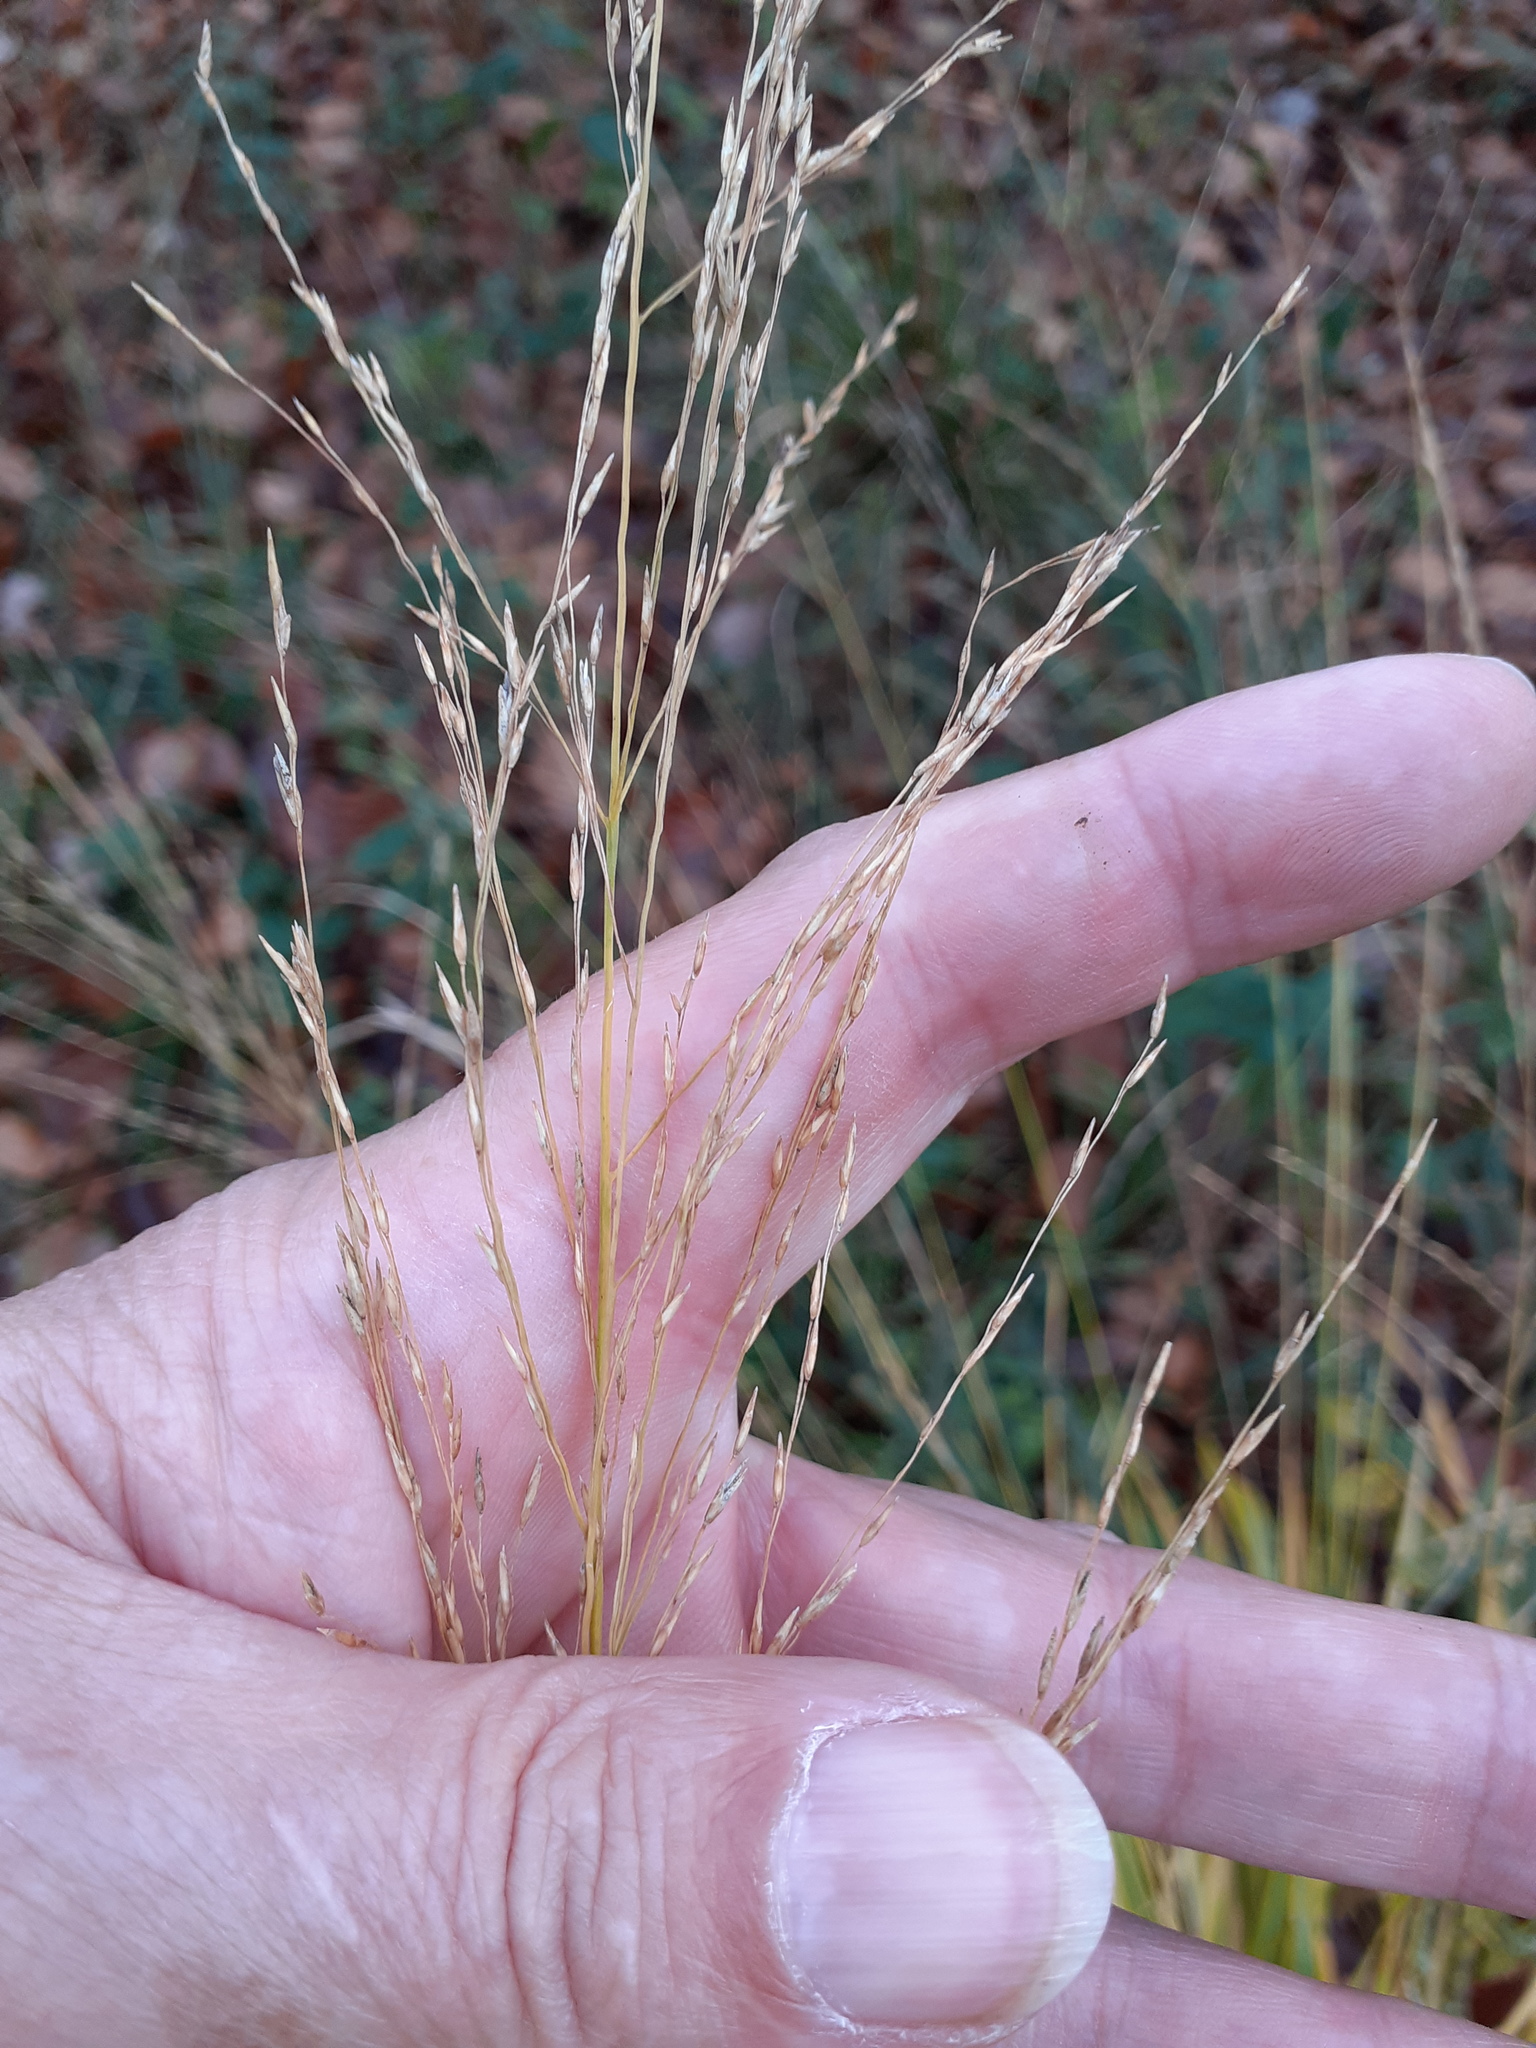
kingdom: Plantae
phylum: Tracheophyta
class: Liliopsida
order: Poales
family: Poaceae
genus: Molinia
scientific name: Molinia caerulea
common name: Purple moor-grass
